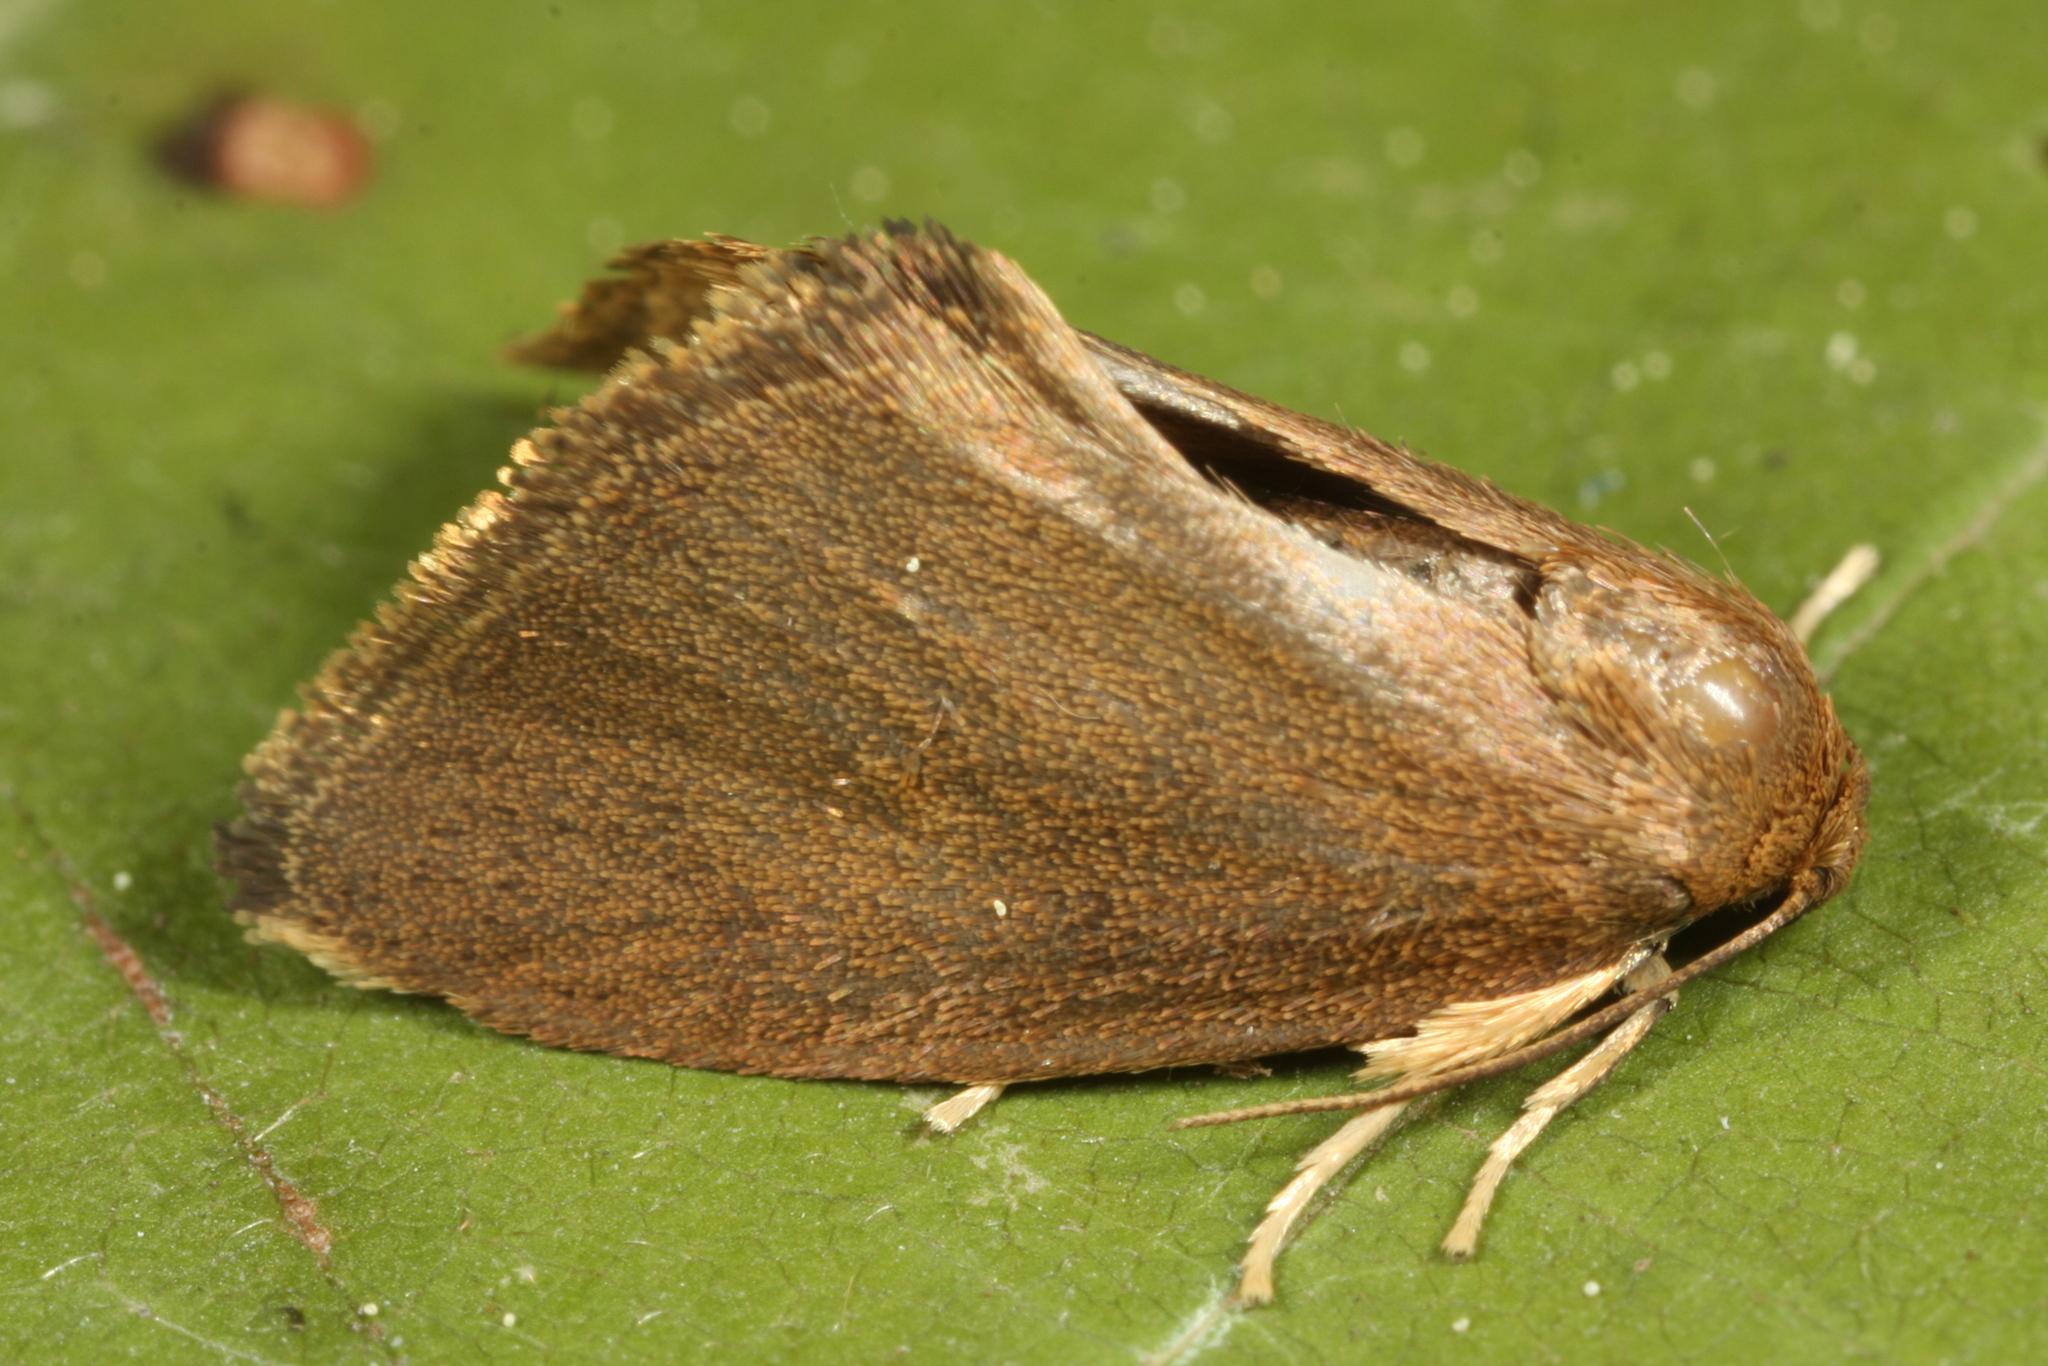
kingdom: Animalia
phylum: Arthropoda
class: Insecta
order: Lepidoptera
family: Limacodidae
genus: Heterogenea
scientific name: Heterogenea asella
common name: Triangle
